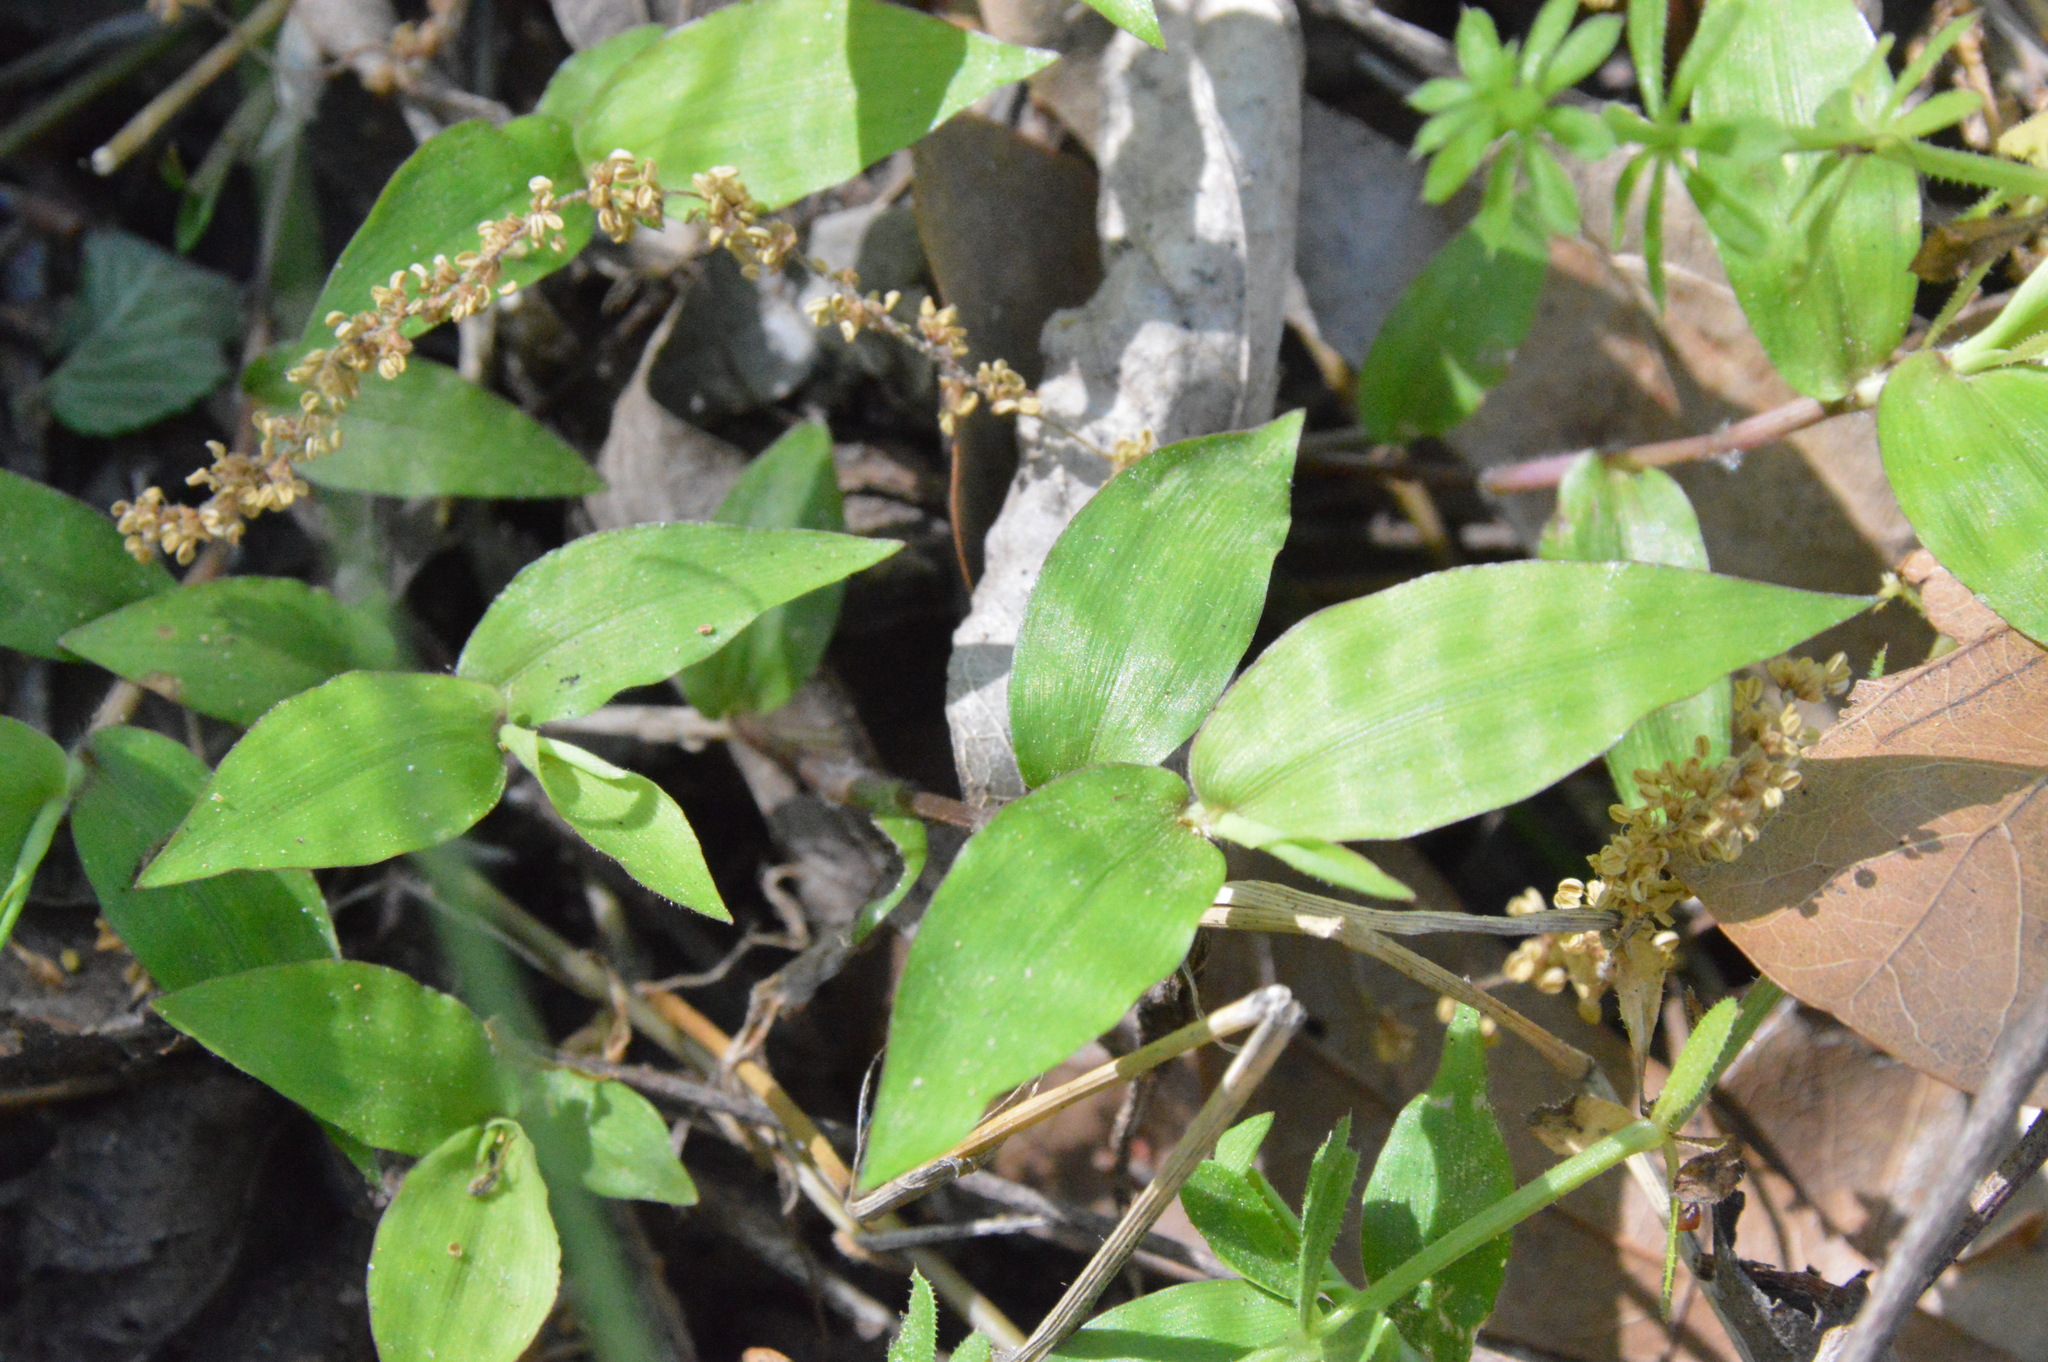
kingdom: Plantae
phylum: Tracheophyta
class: Liliopsida
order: Poales
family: Poaceae
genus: Oplismenus
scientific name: Oplismenus hirtellus
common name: Basketgrass
